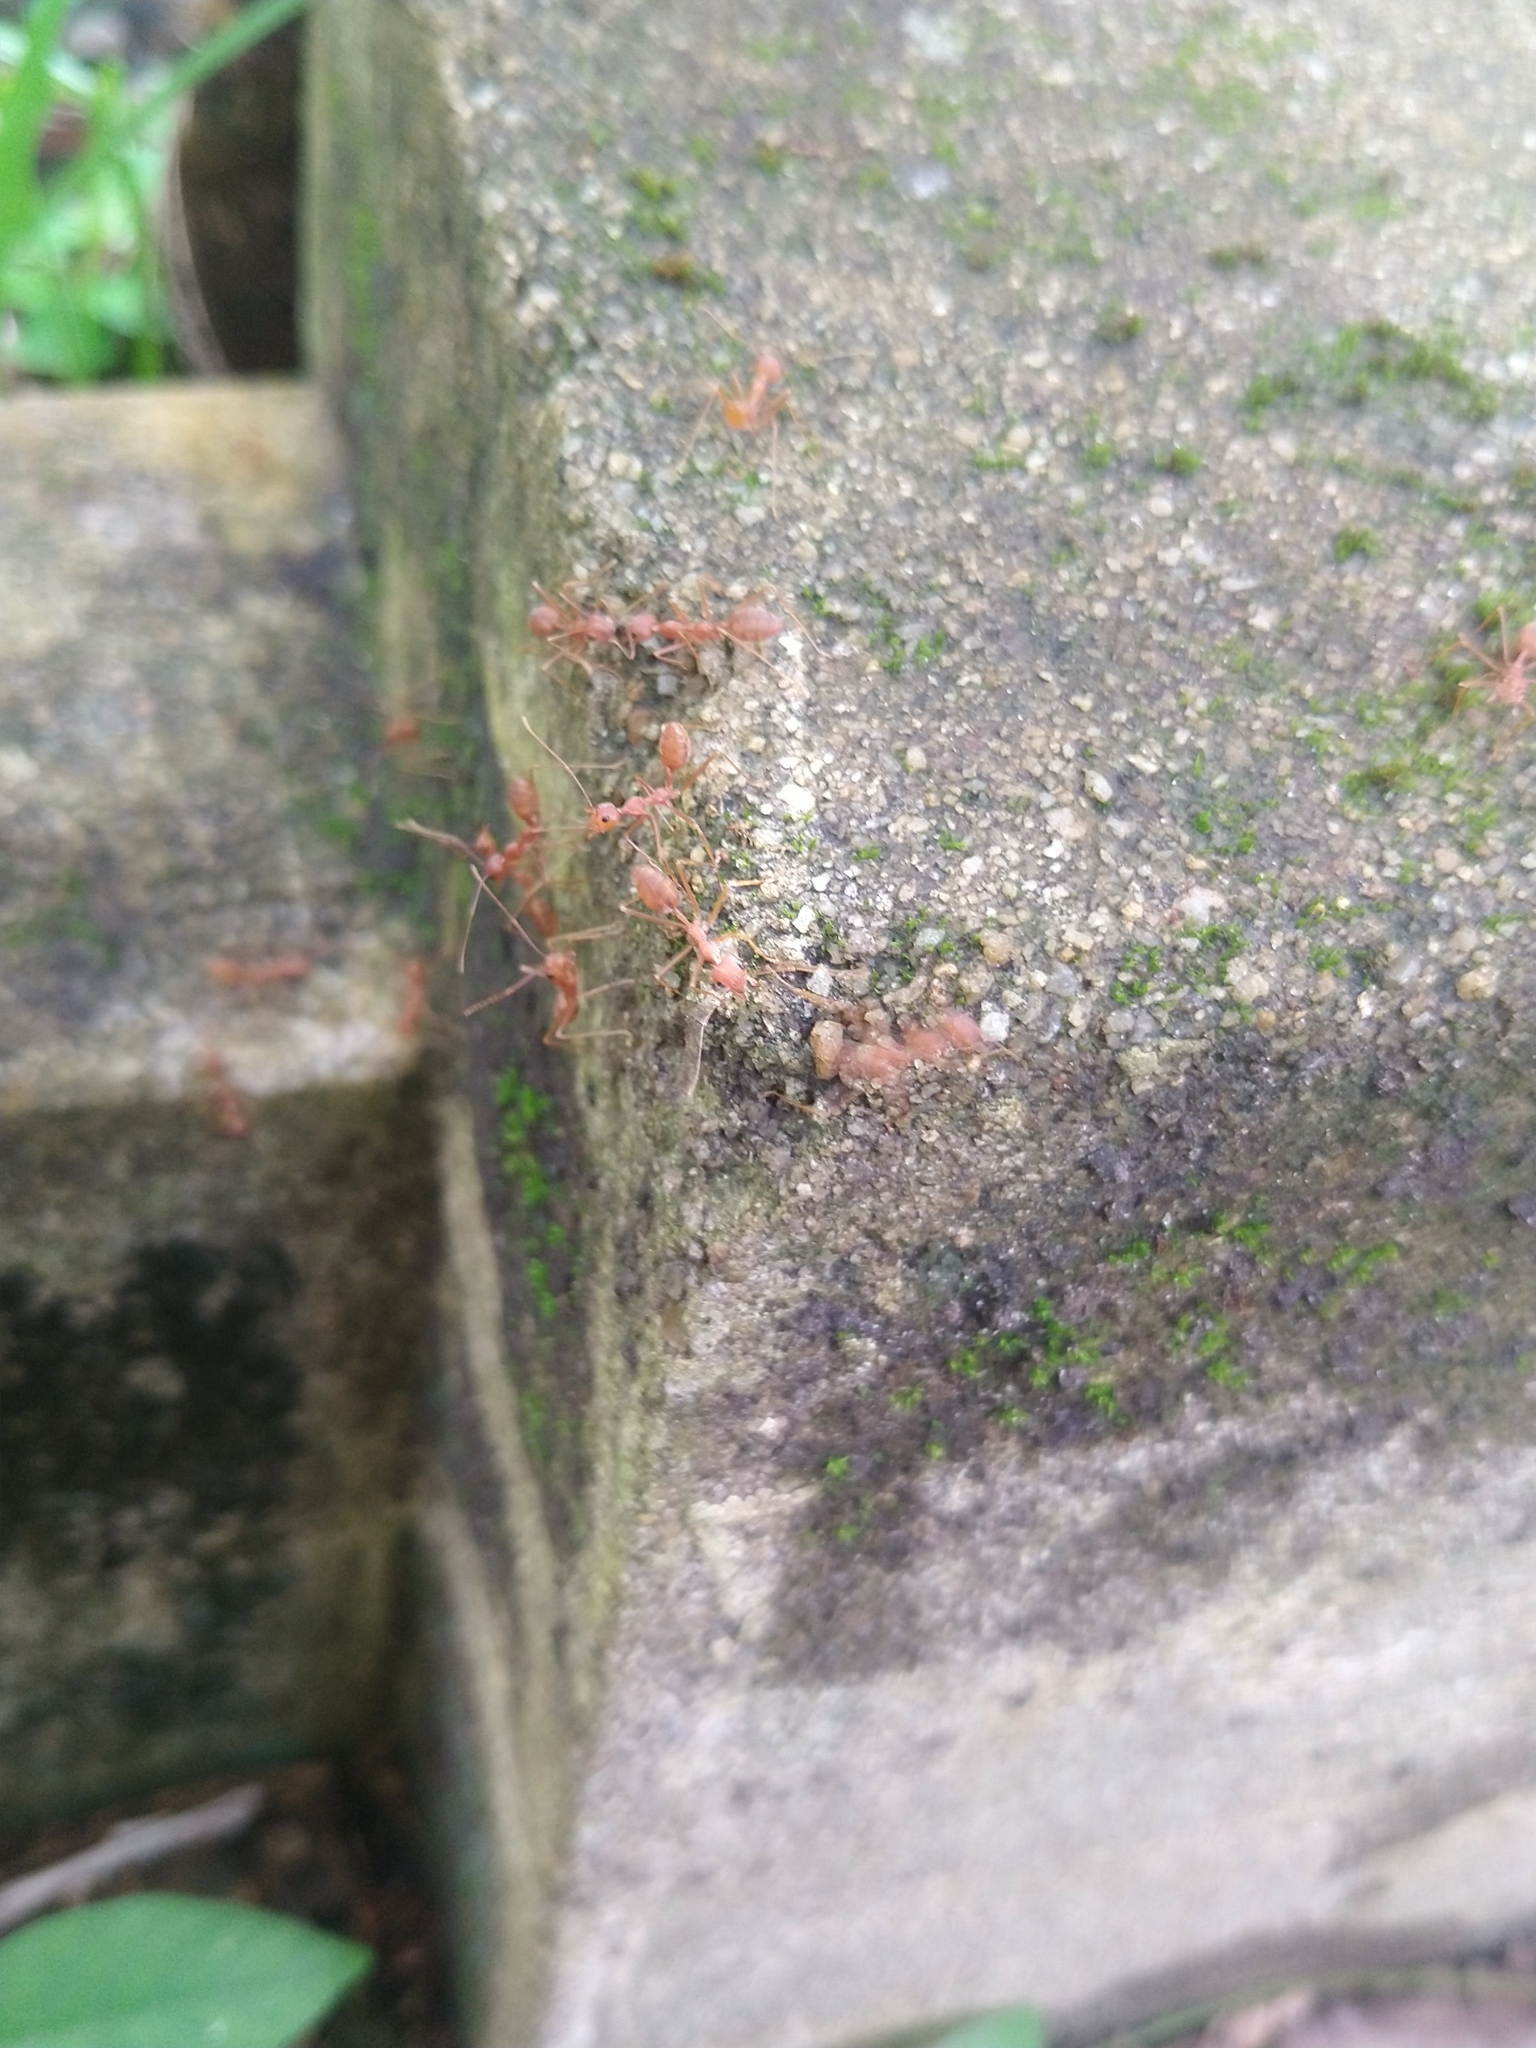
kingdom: Animalia
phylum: Arthropoda
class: Insecta
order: Hymenoptera
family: Formicidae
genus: Oecophylla
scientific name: Oecophylla smaragdina
